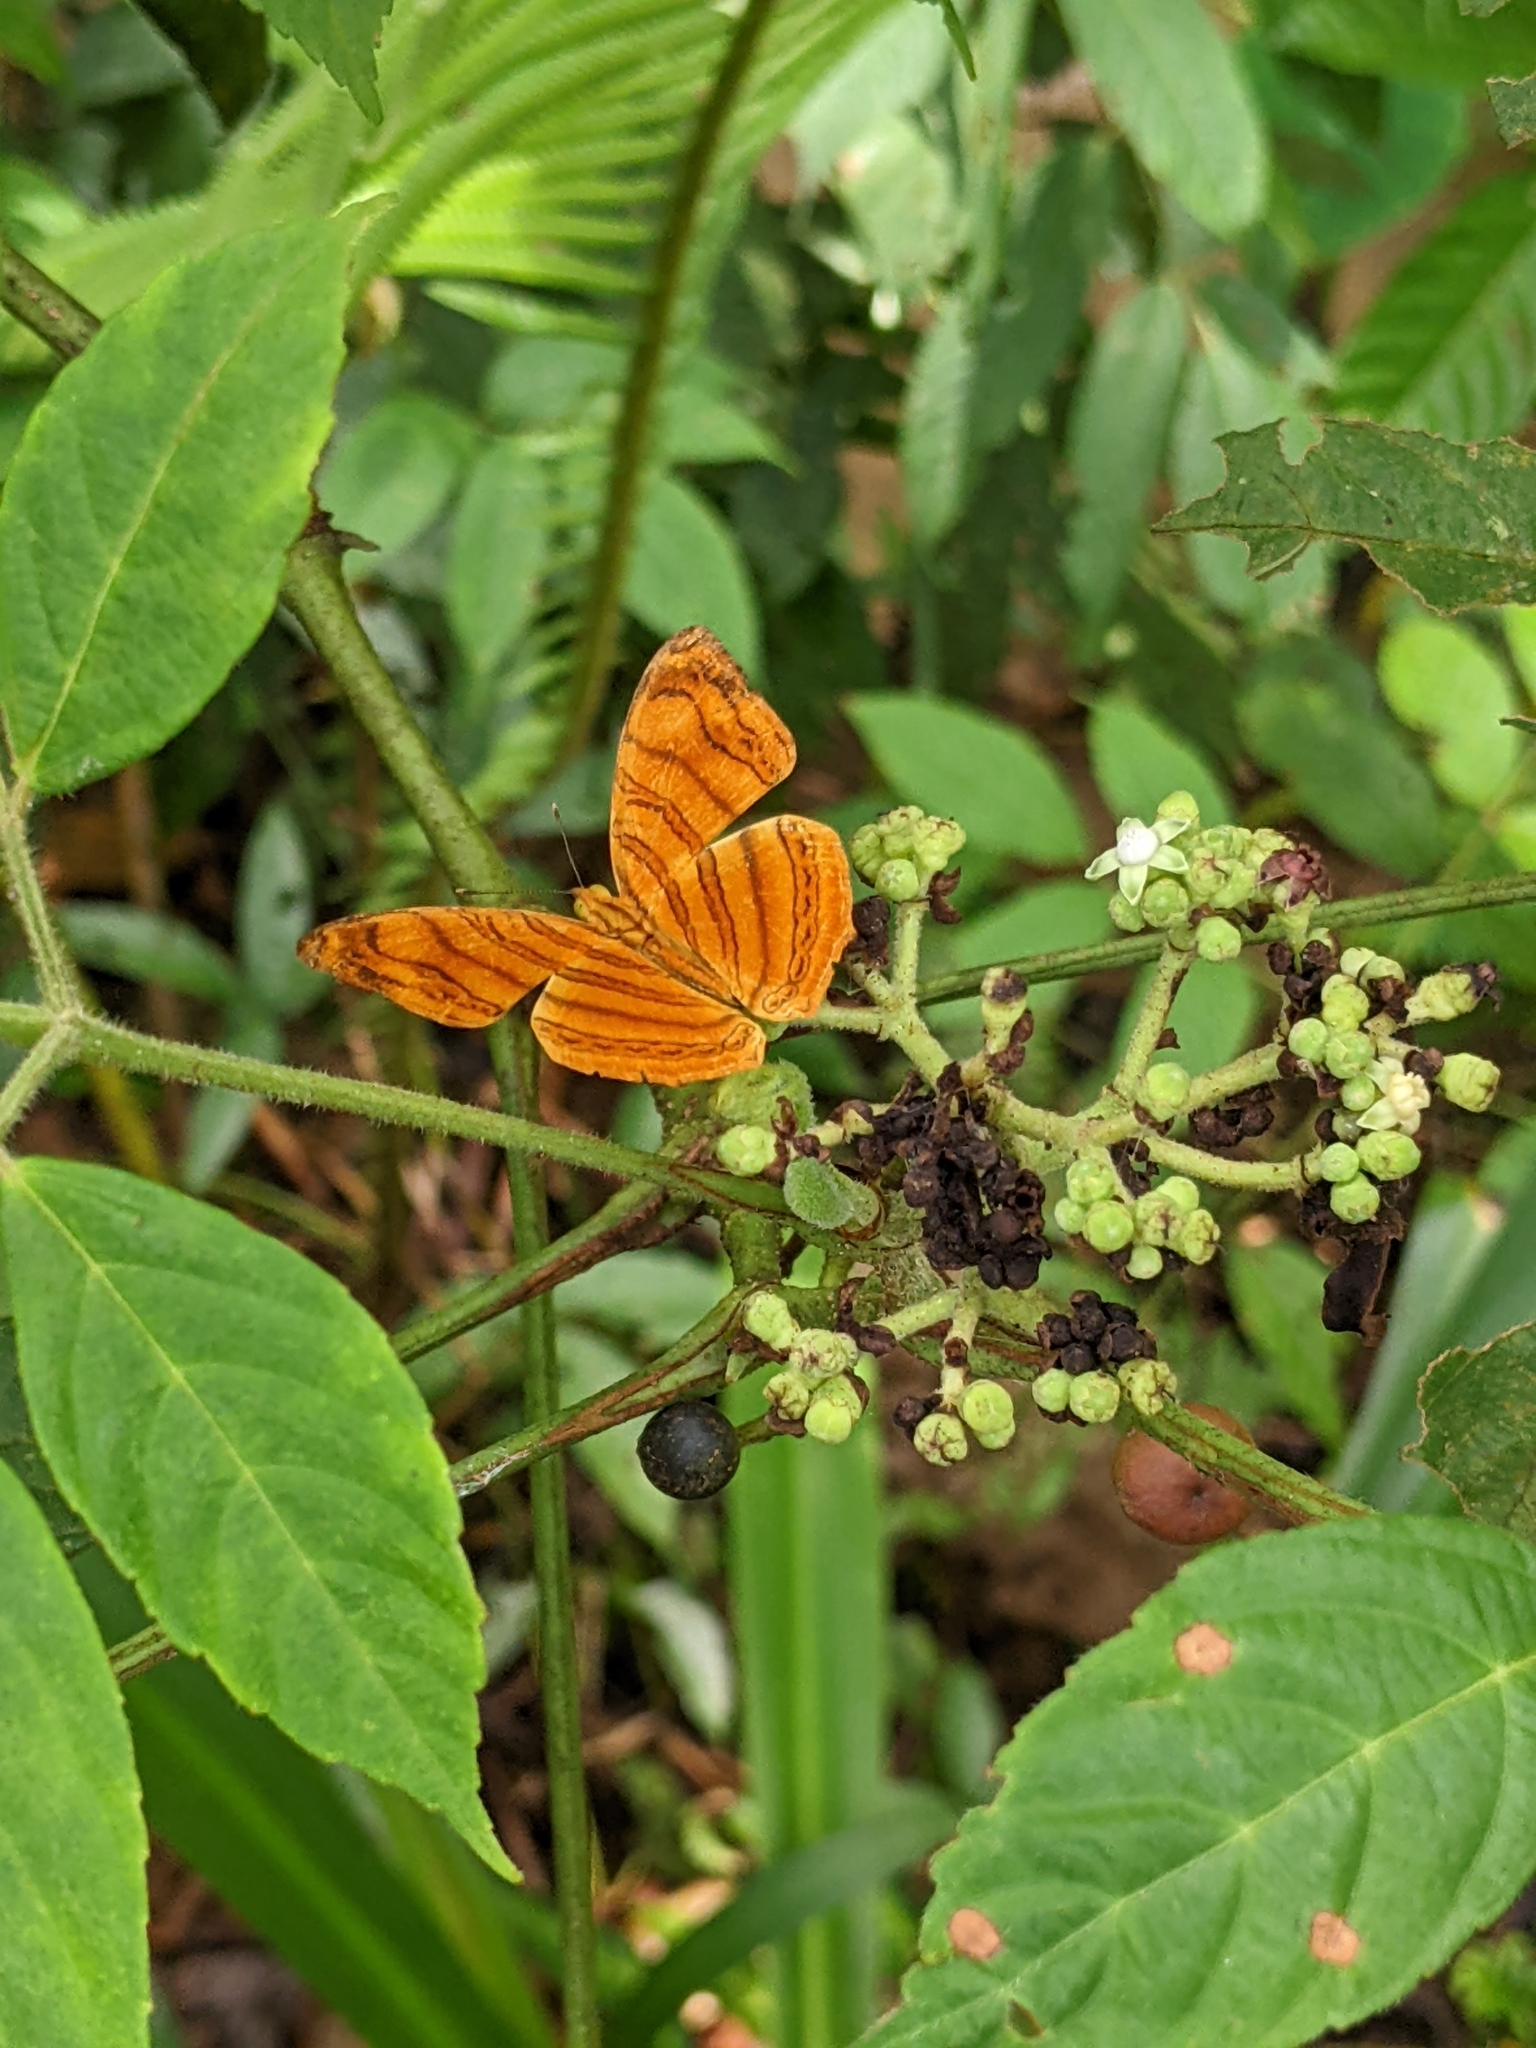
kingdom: Animalia
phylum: Arthropoda
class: Insecta
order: Lepidoptera
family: Nymphalidae
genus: Chersonesia
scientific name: Chersonesia rahria
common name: Wavy maplet
